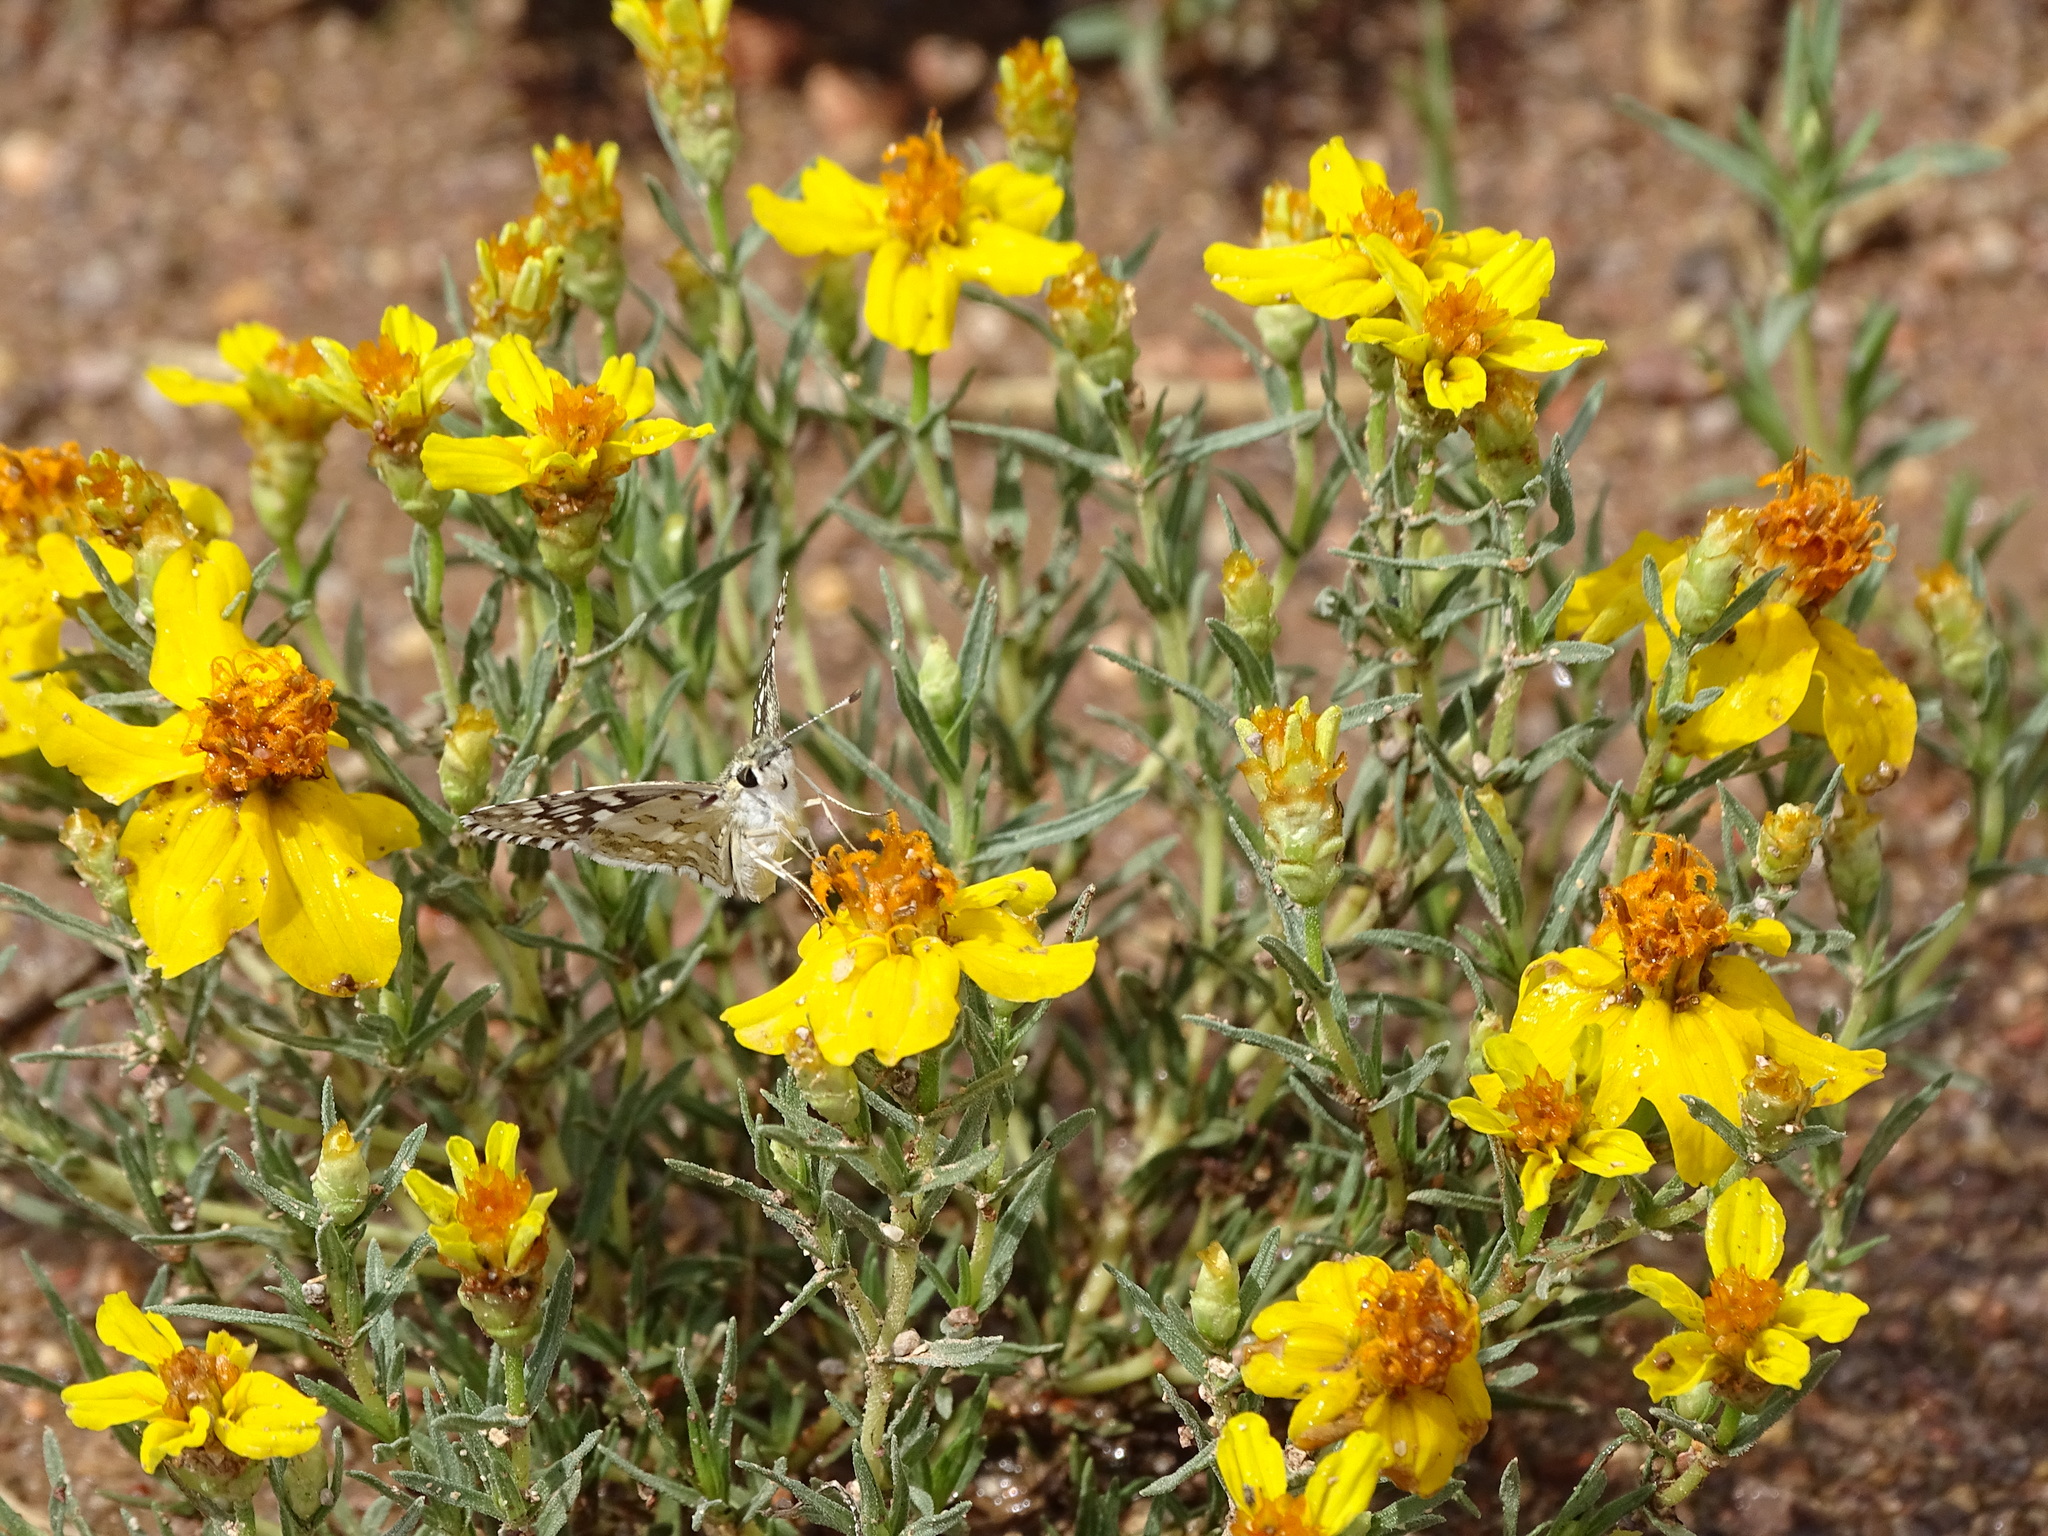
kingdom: Animalia
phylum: Arthropoda
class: Insecta
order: Lepidoptera
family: Hesperiidae
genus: Burnsius
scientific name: Burnsius communis
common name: Common checkered-skipper
